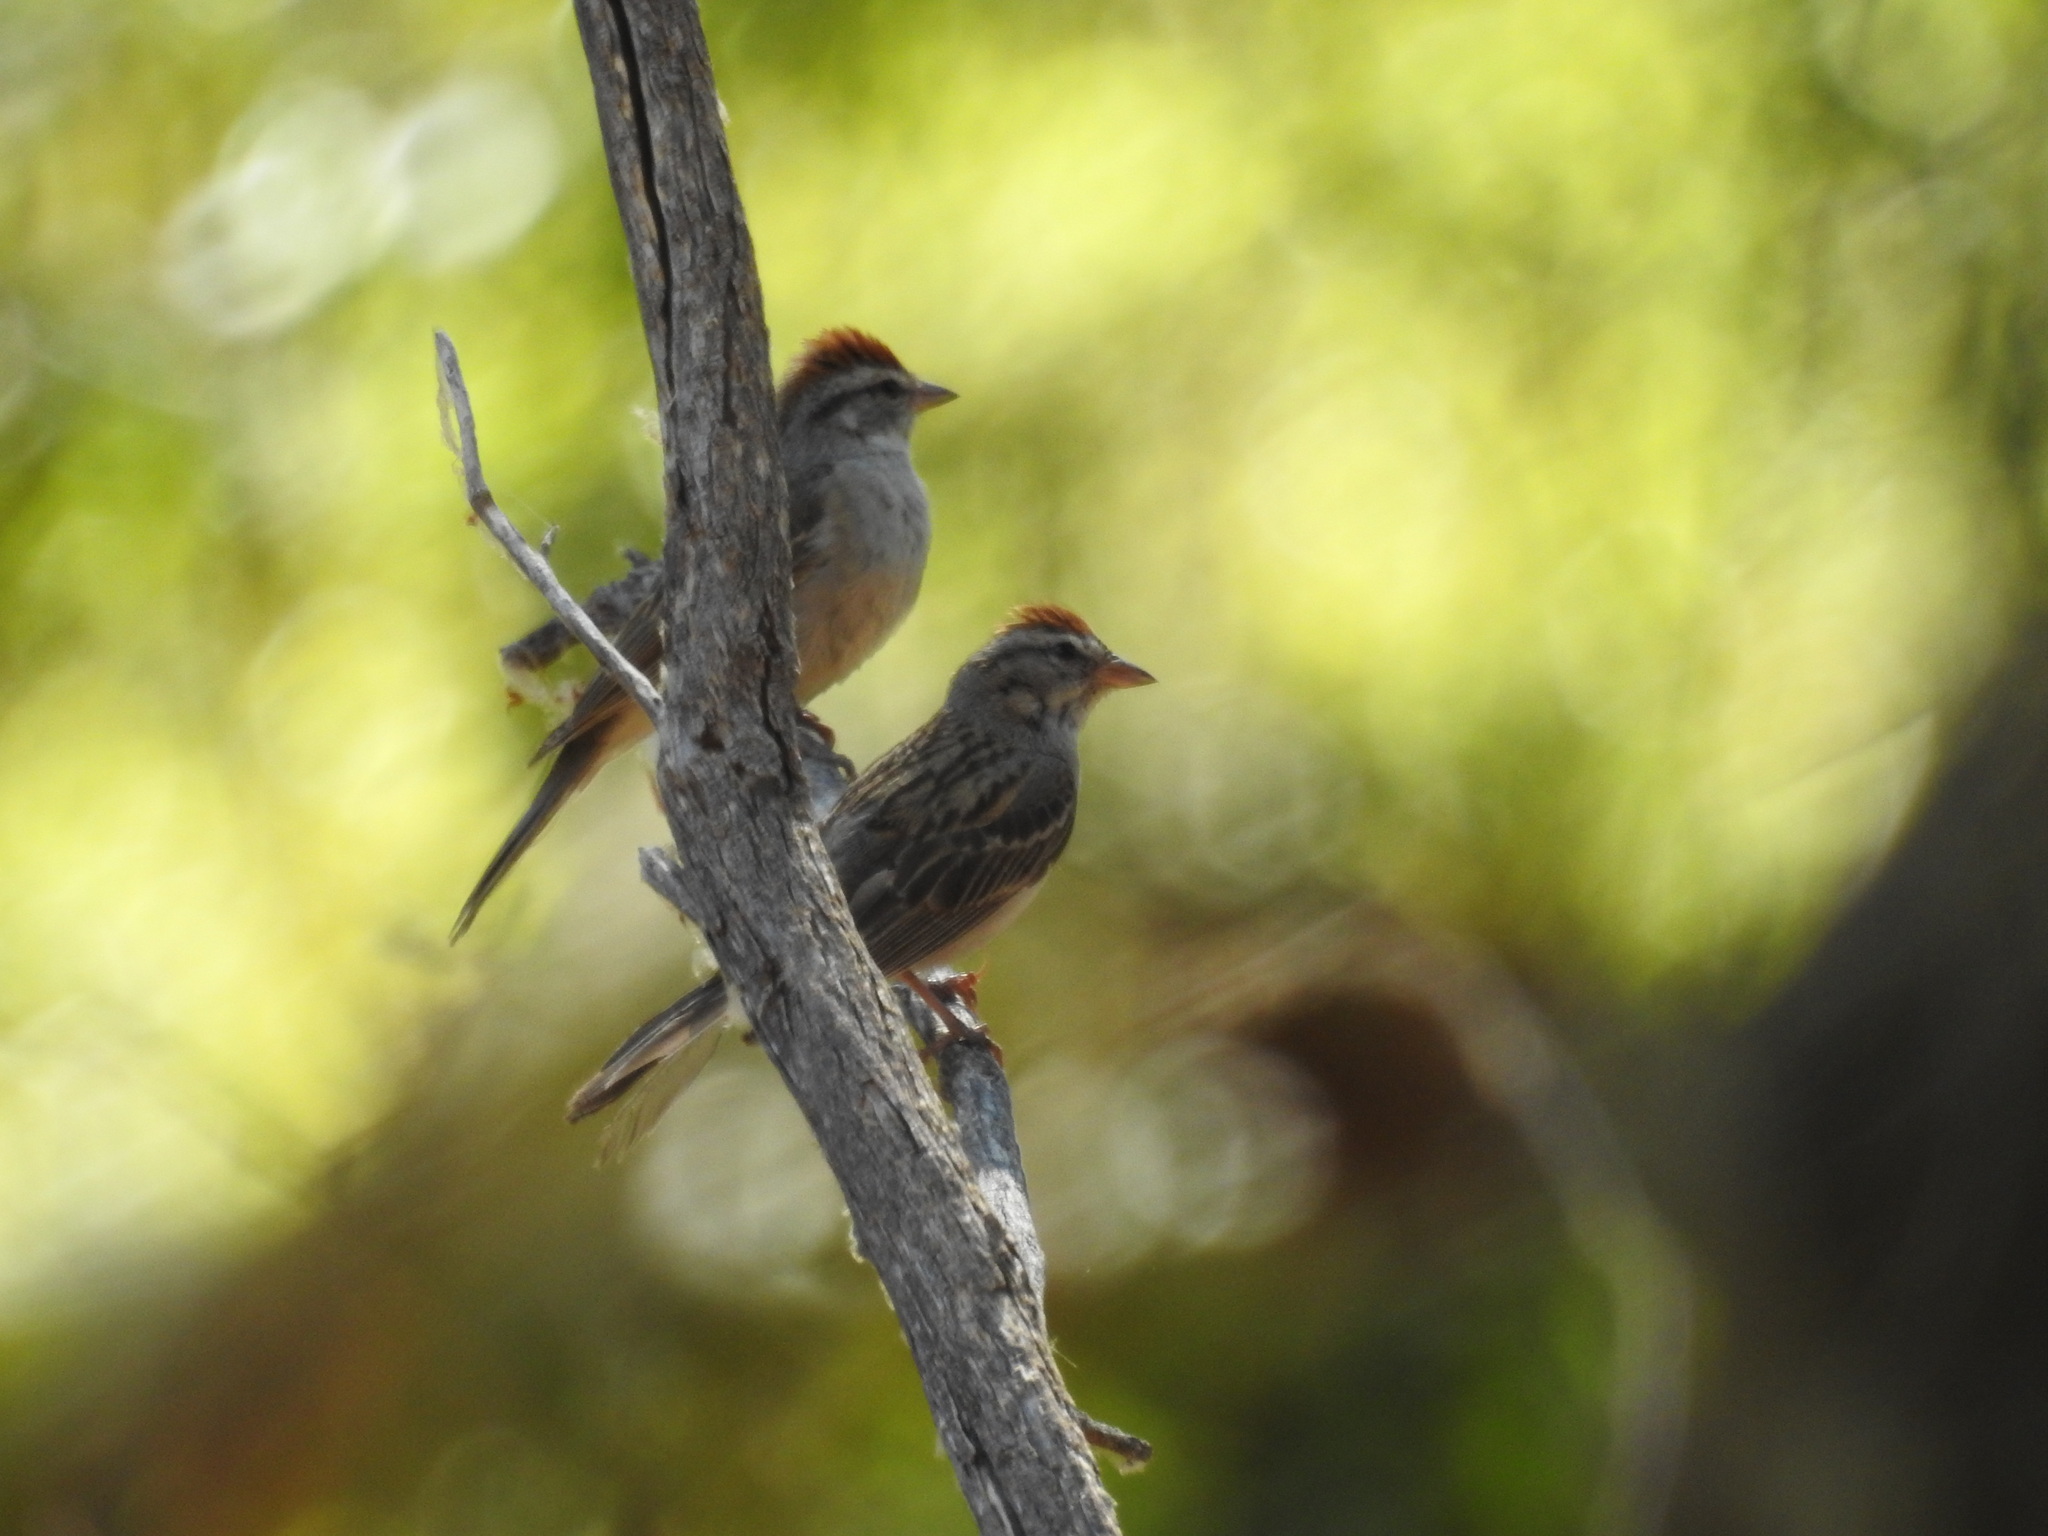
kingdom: Animalia
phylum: Chordata
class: Aves
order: Passeriformes
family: Passerellidae
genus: Spizella
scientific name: Spizella passerina
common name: Chipping sparrow
